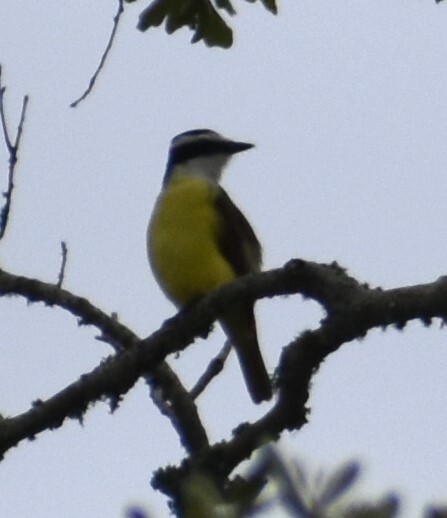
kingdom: Animalia
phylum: Chordata
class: Aves
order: Passeriformes
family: Tyrannidae
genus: Pitangus
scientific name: Pitangus sulphuratus
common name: Great kiskadee
